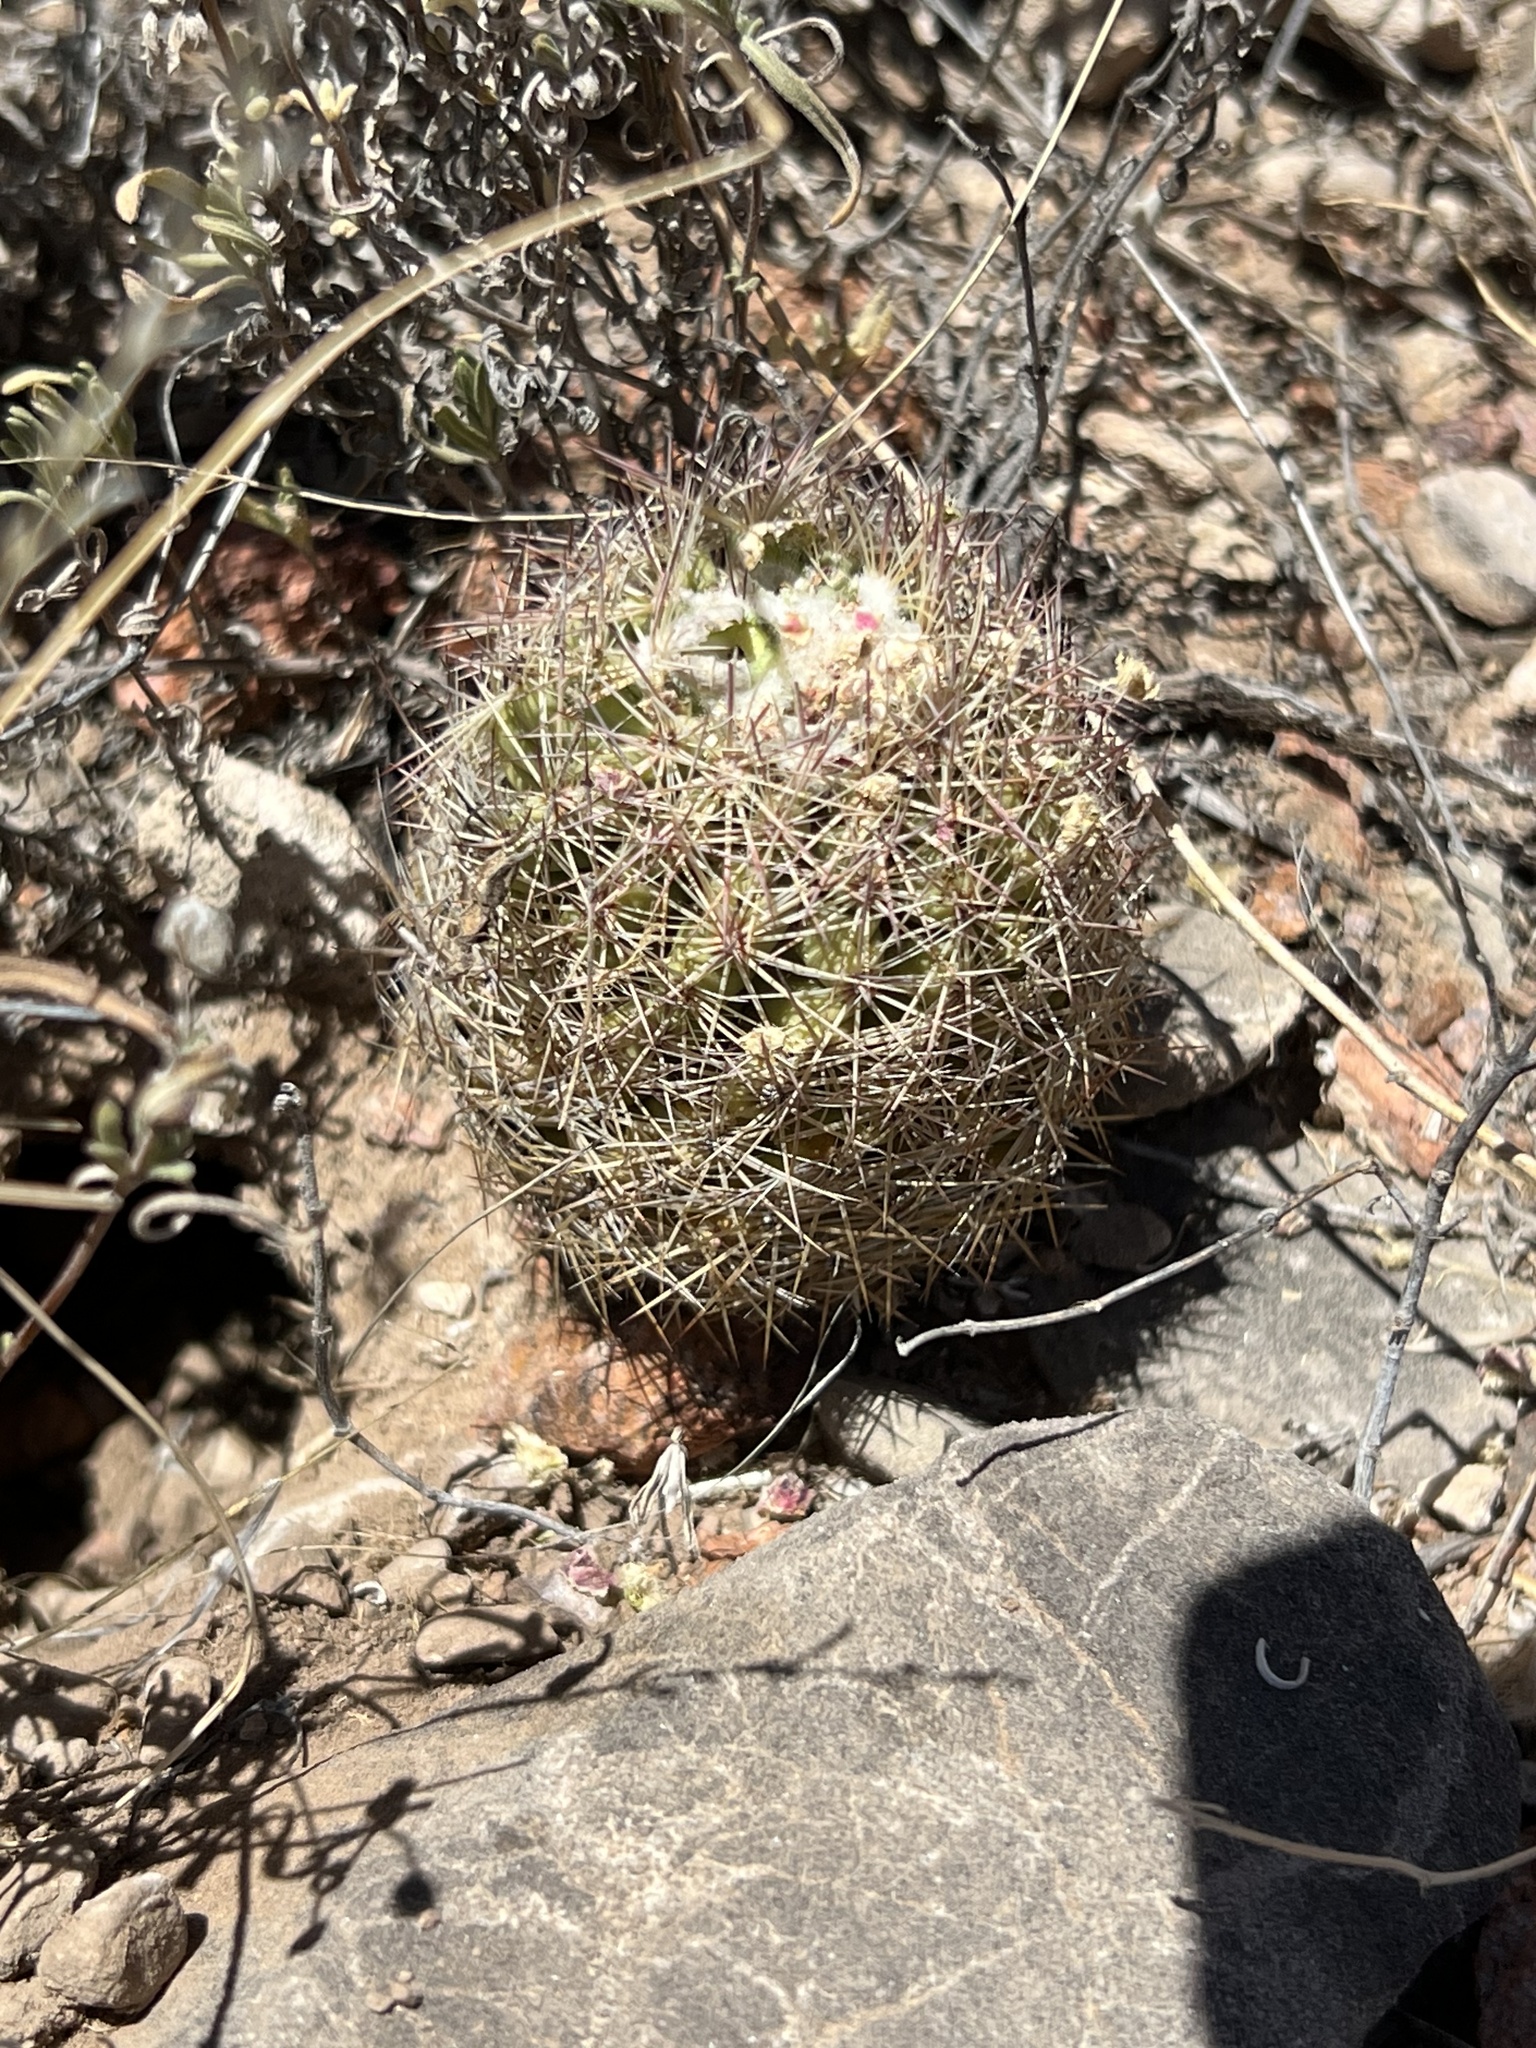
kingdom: Plantae
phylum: Tracheophyta
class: Magnoliopsida
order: Caryophyllales
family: Cactaceae
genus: Sclerocactus
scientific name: Sclerocactus intertextus
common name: White fish-hook cactus
